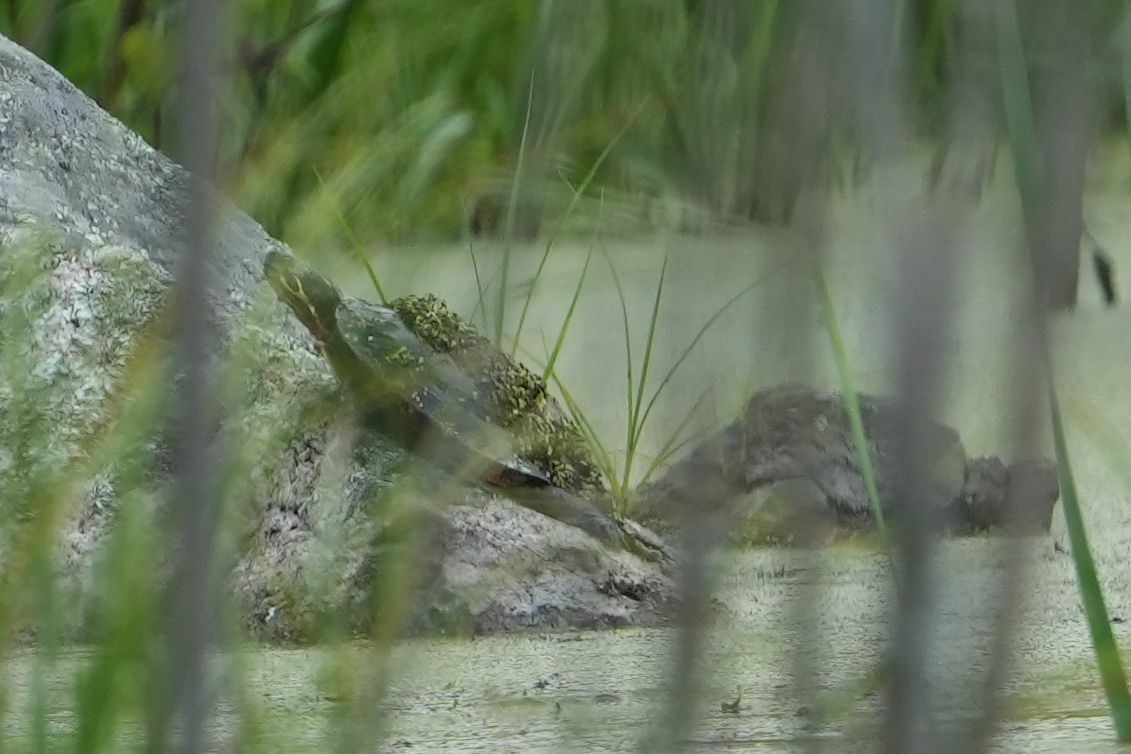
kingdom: Animalia
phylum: Chordata
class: Testudines
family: Emydidae
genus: Chrysemys
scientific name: Chrysemys picta
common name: Painted turtle
